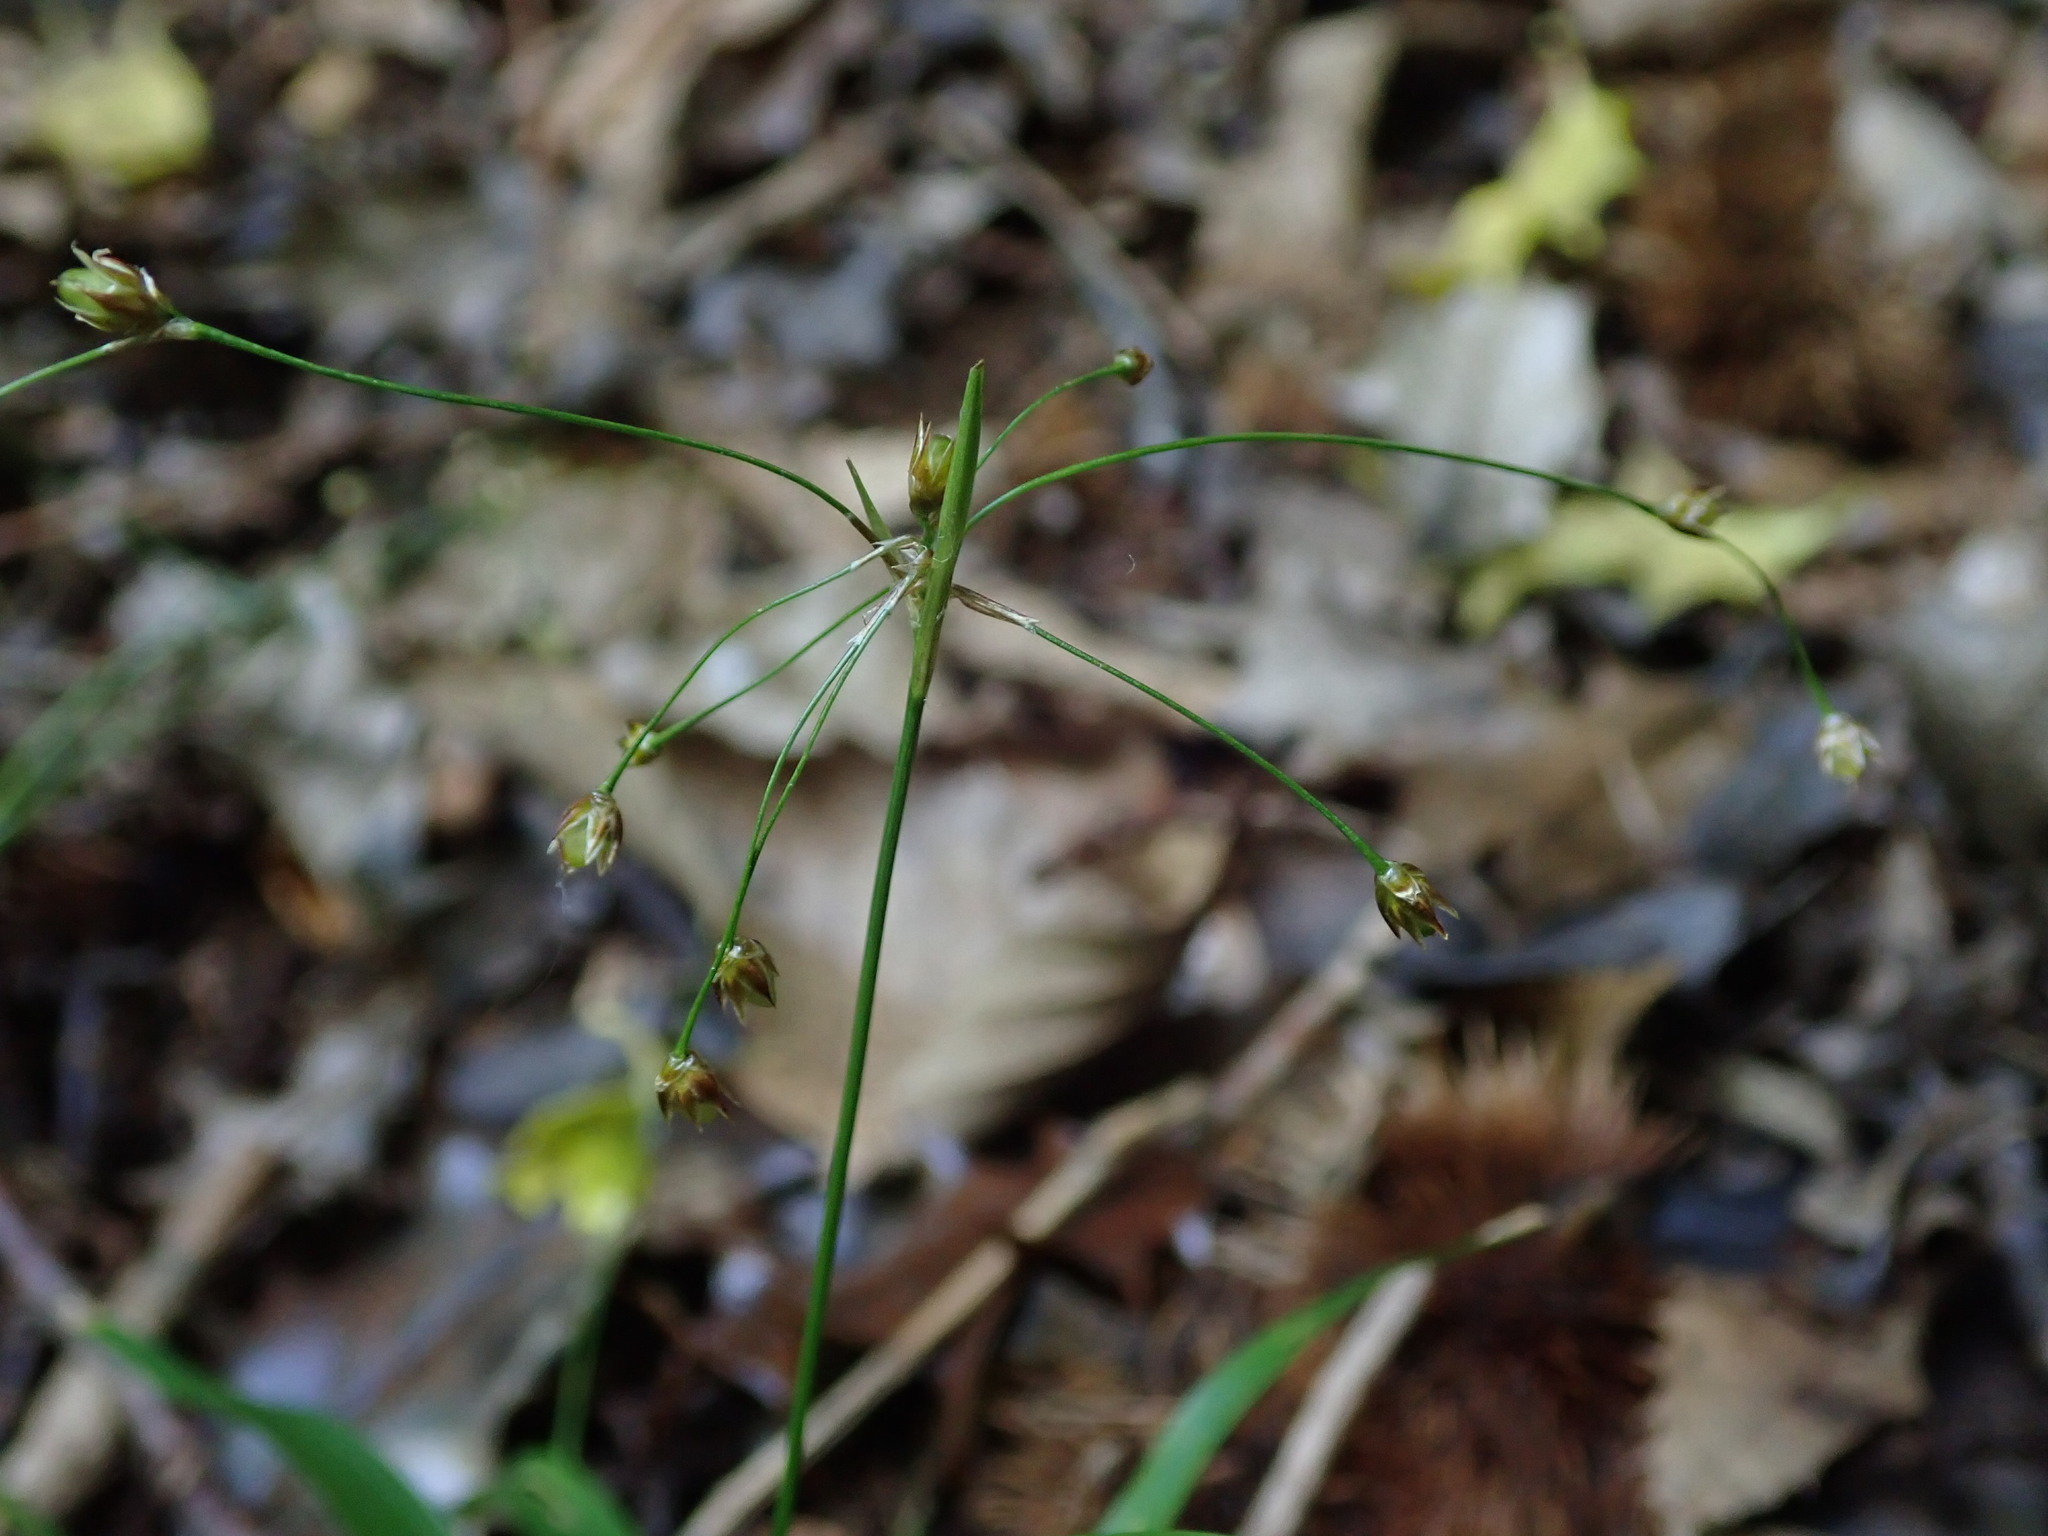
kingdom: Plantae
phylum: Tracheophyta
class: Liliopsida
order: Poales
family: Juncaceae
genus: Luzula
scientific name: Luzula pilosa
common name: Hairy wood-rush
